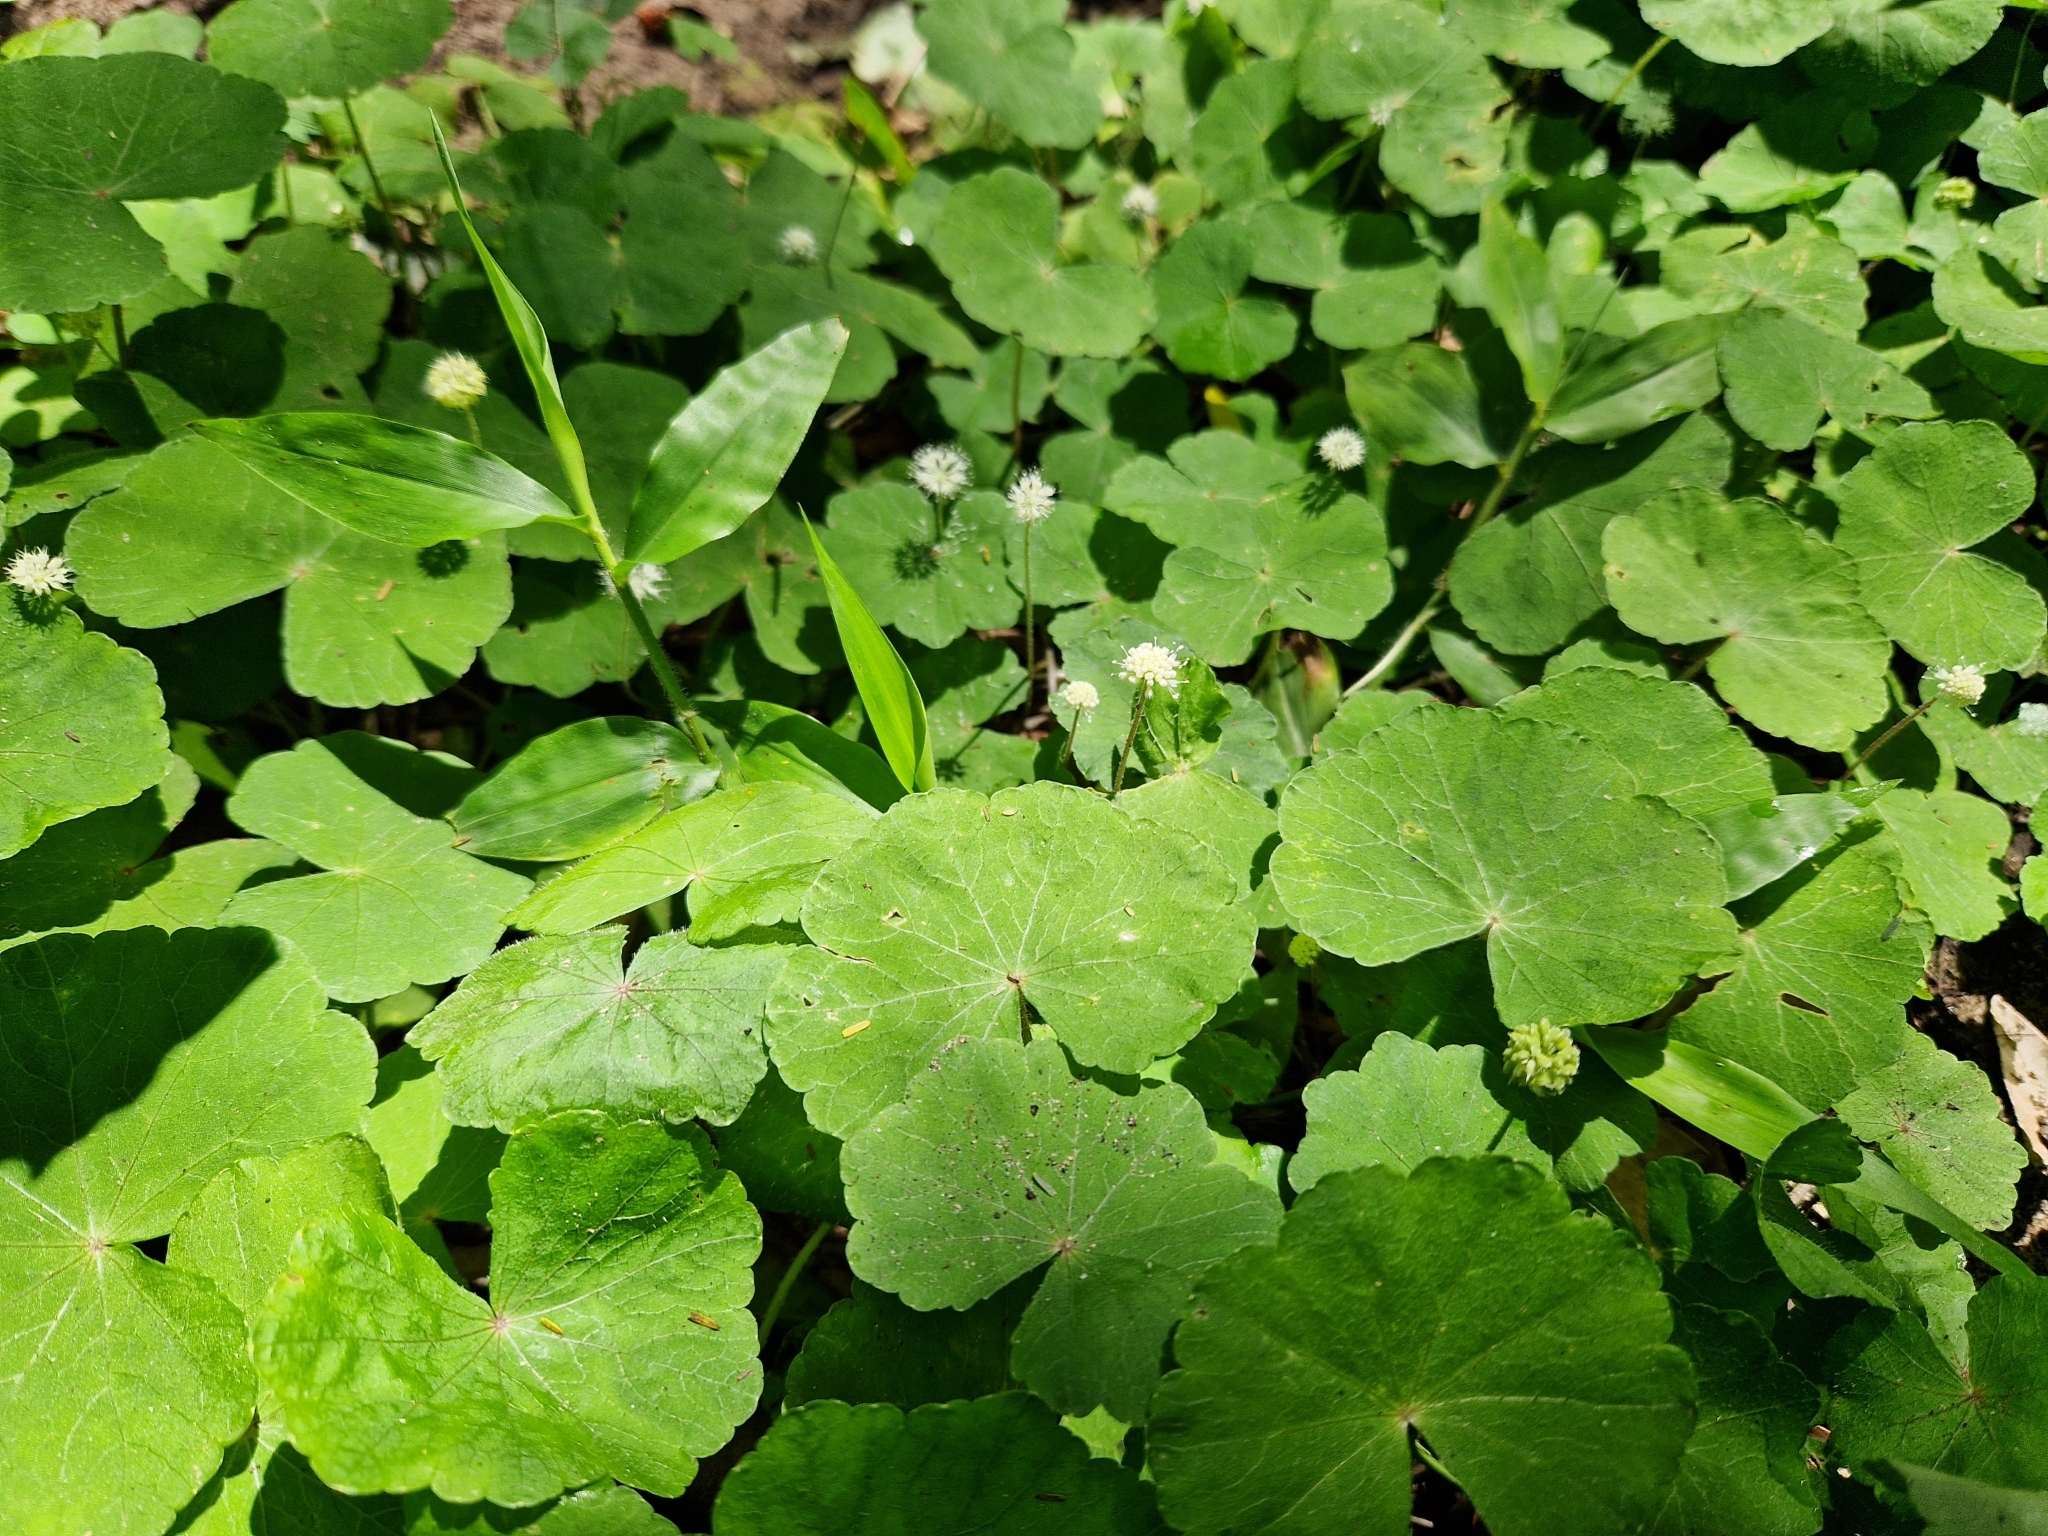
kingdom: Plantae
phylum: Tracheophyta
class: Magnoliopsida
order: Apiales
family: Araliaceae
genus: Hydrocotyle
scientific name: Hydrocotyle leucocephala
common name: Brazilian pennywort
